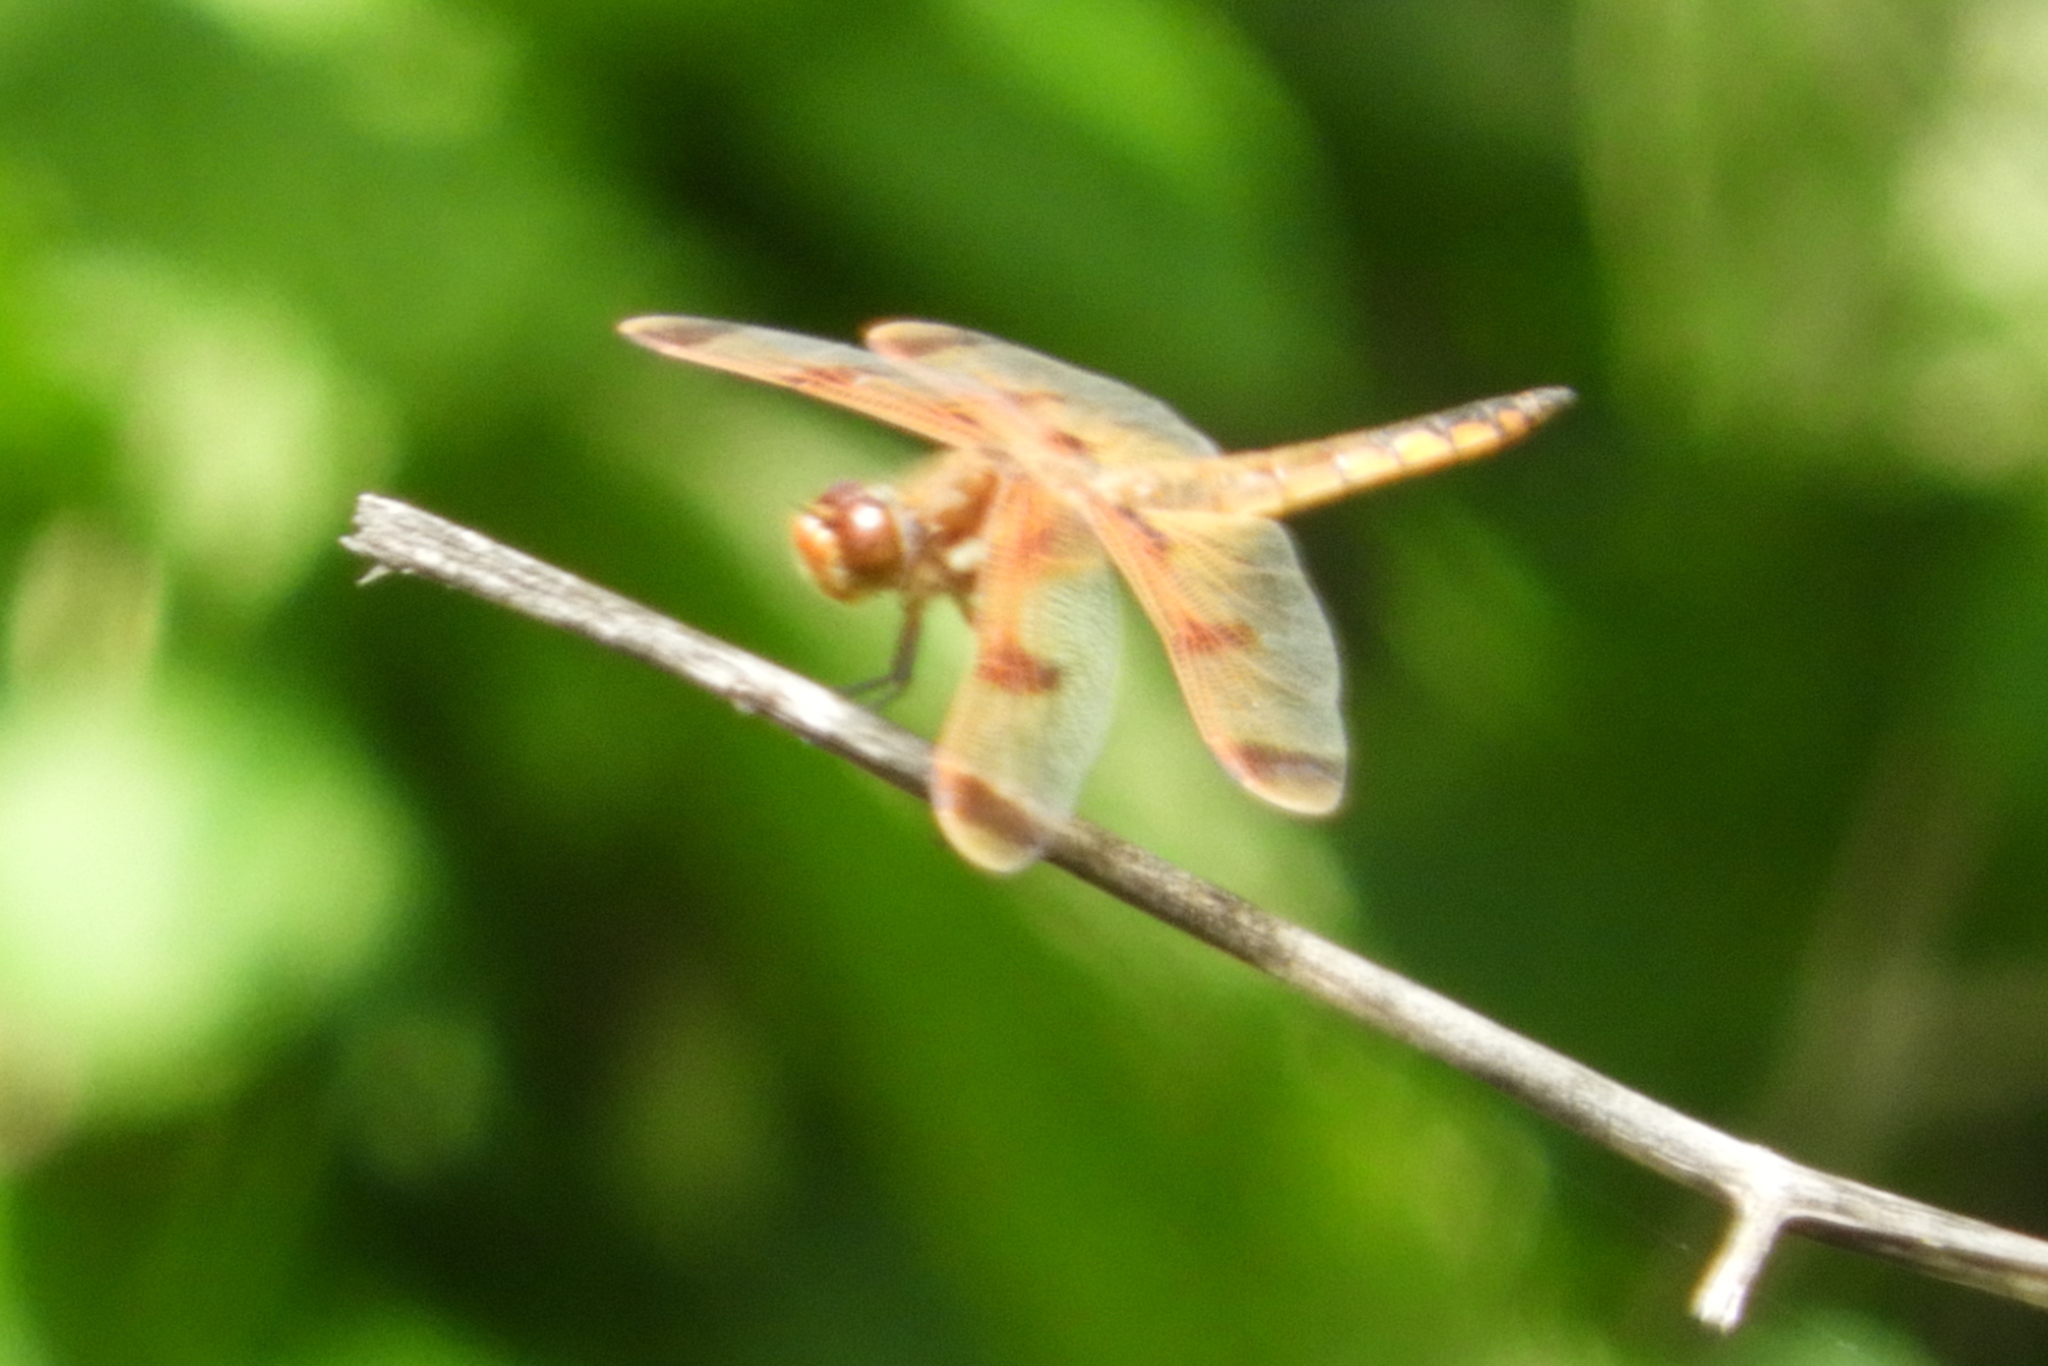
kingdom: Animalia
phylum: Arthropoda
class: Insecta
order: Odonata
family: Libellulidae
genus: Libellula
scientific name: Libellula semifasciata
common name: Painted skimmer
